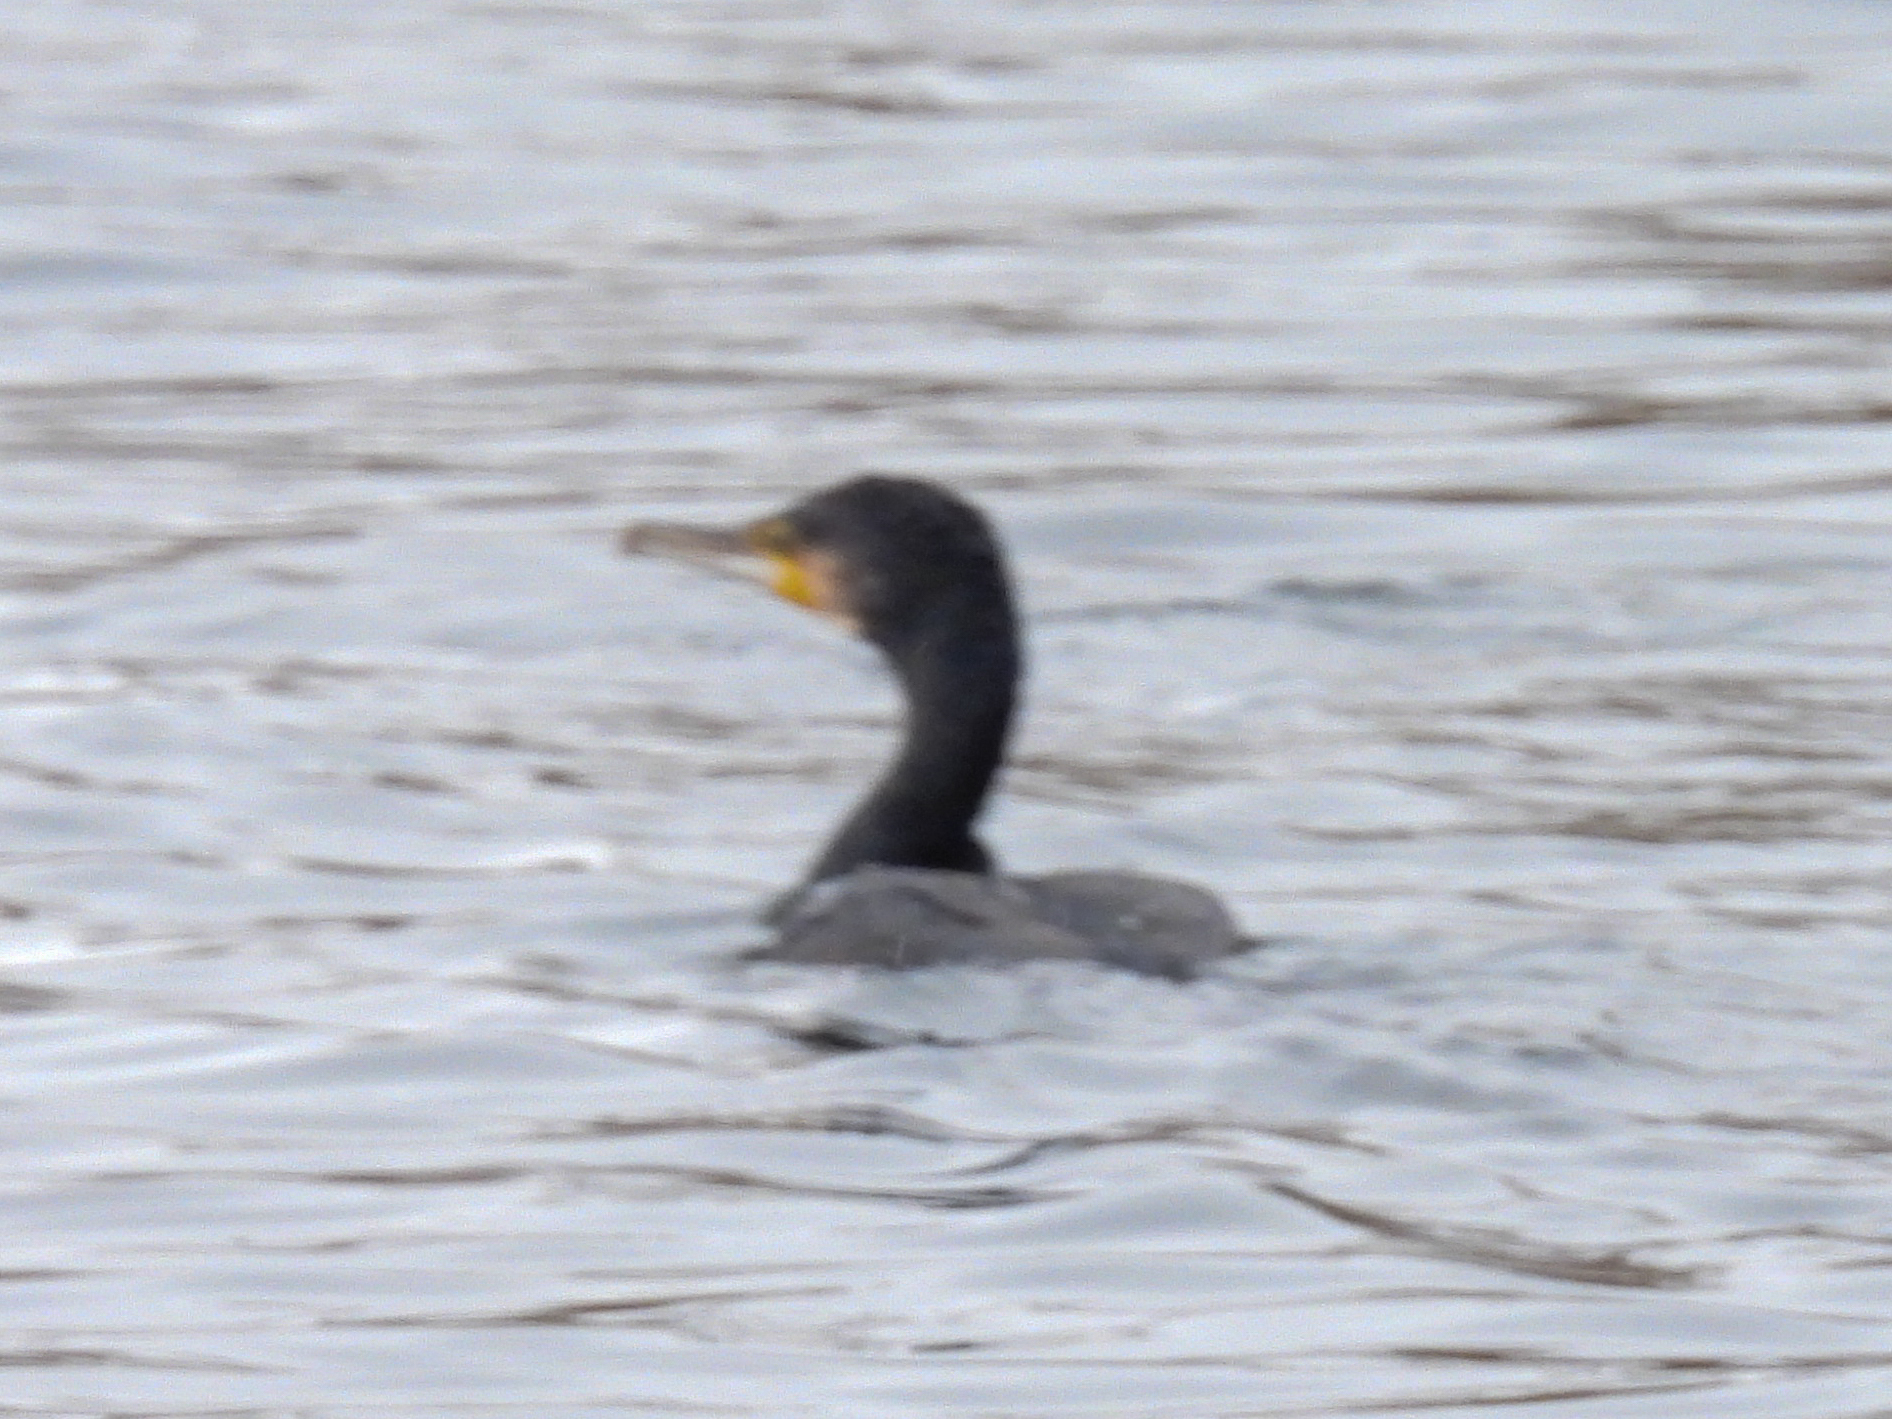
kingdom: Animalia
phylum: Chordata
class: Aves
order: Suliformes
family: Phalacrocoracidae
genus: Phalacrocorax
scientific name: Phalacrocorax carbo
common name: Great cormorant
